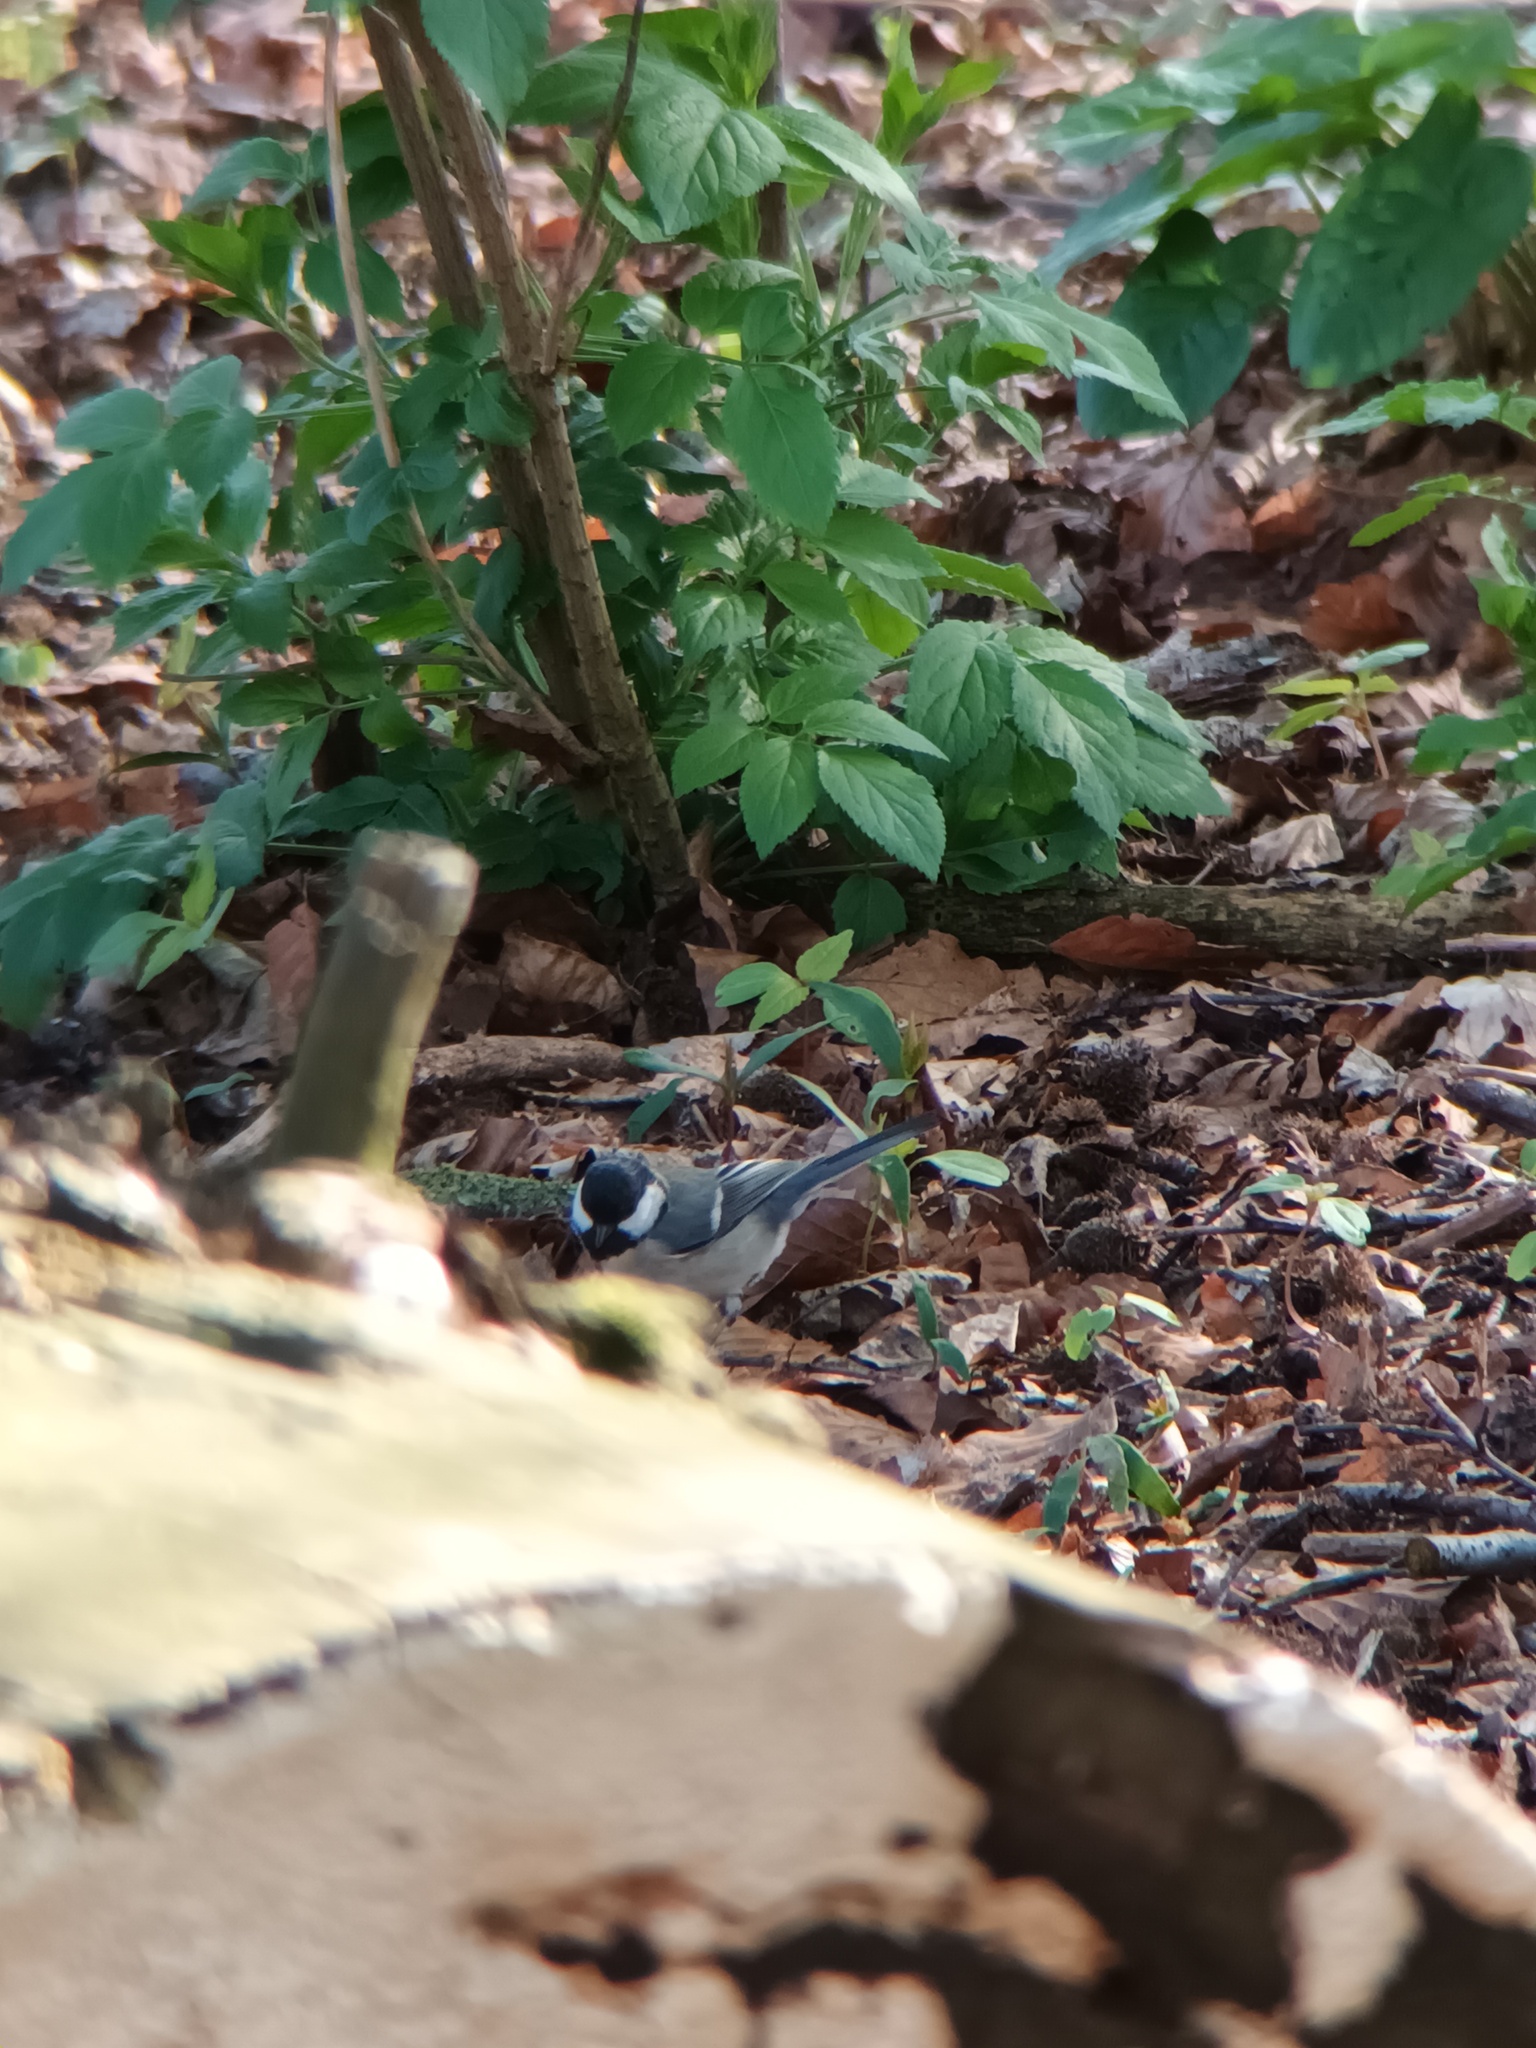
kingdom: Animalia
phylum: Chordata
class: Aves
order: Passeriformes
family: Paridae
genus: Parus
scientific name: Parus major
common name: Great tit
